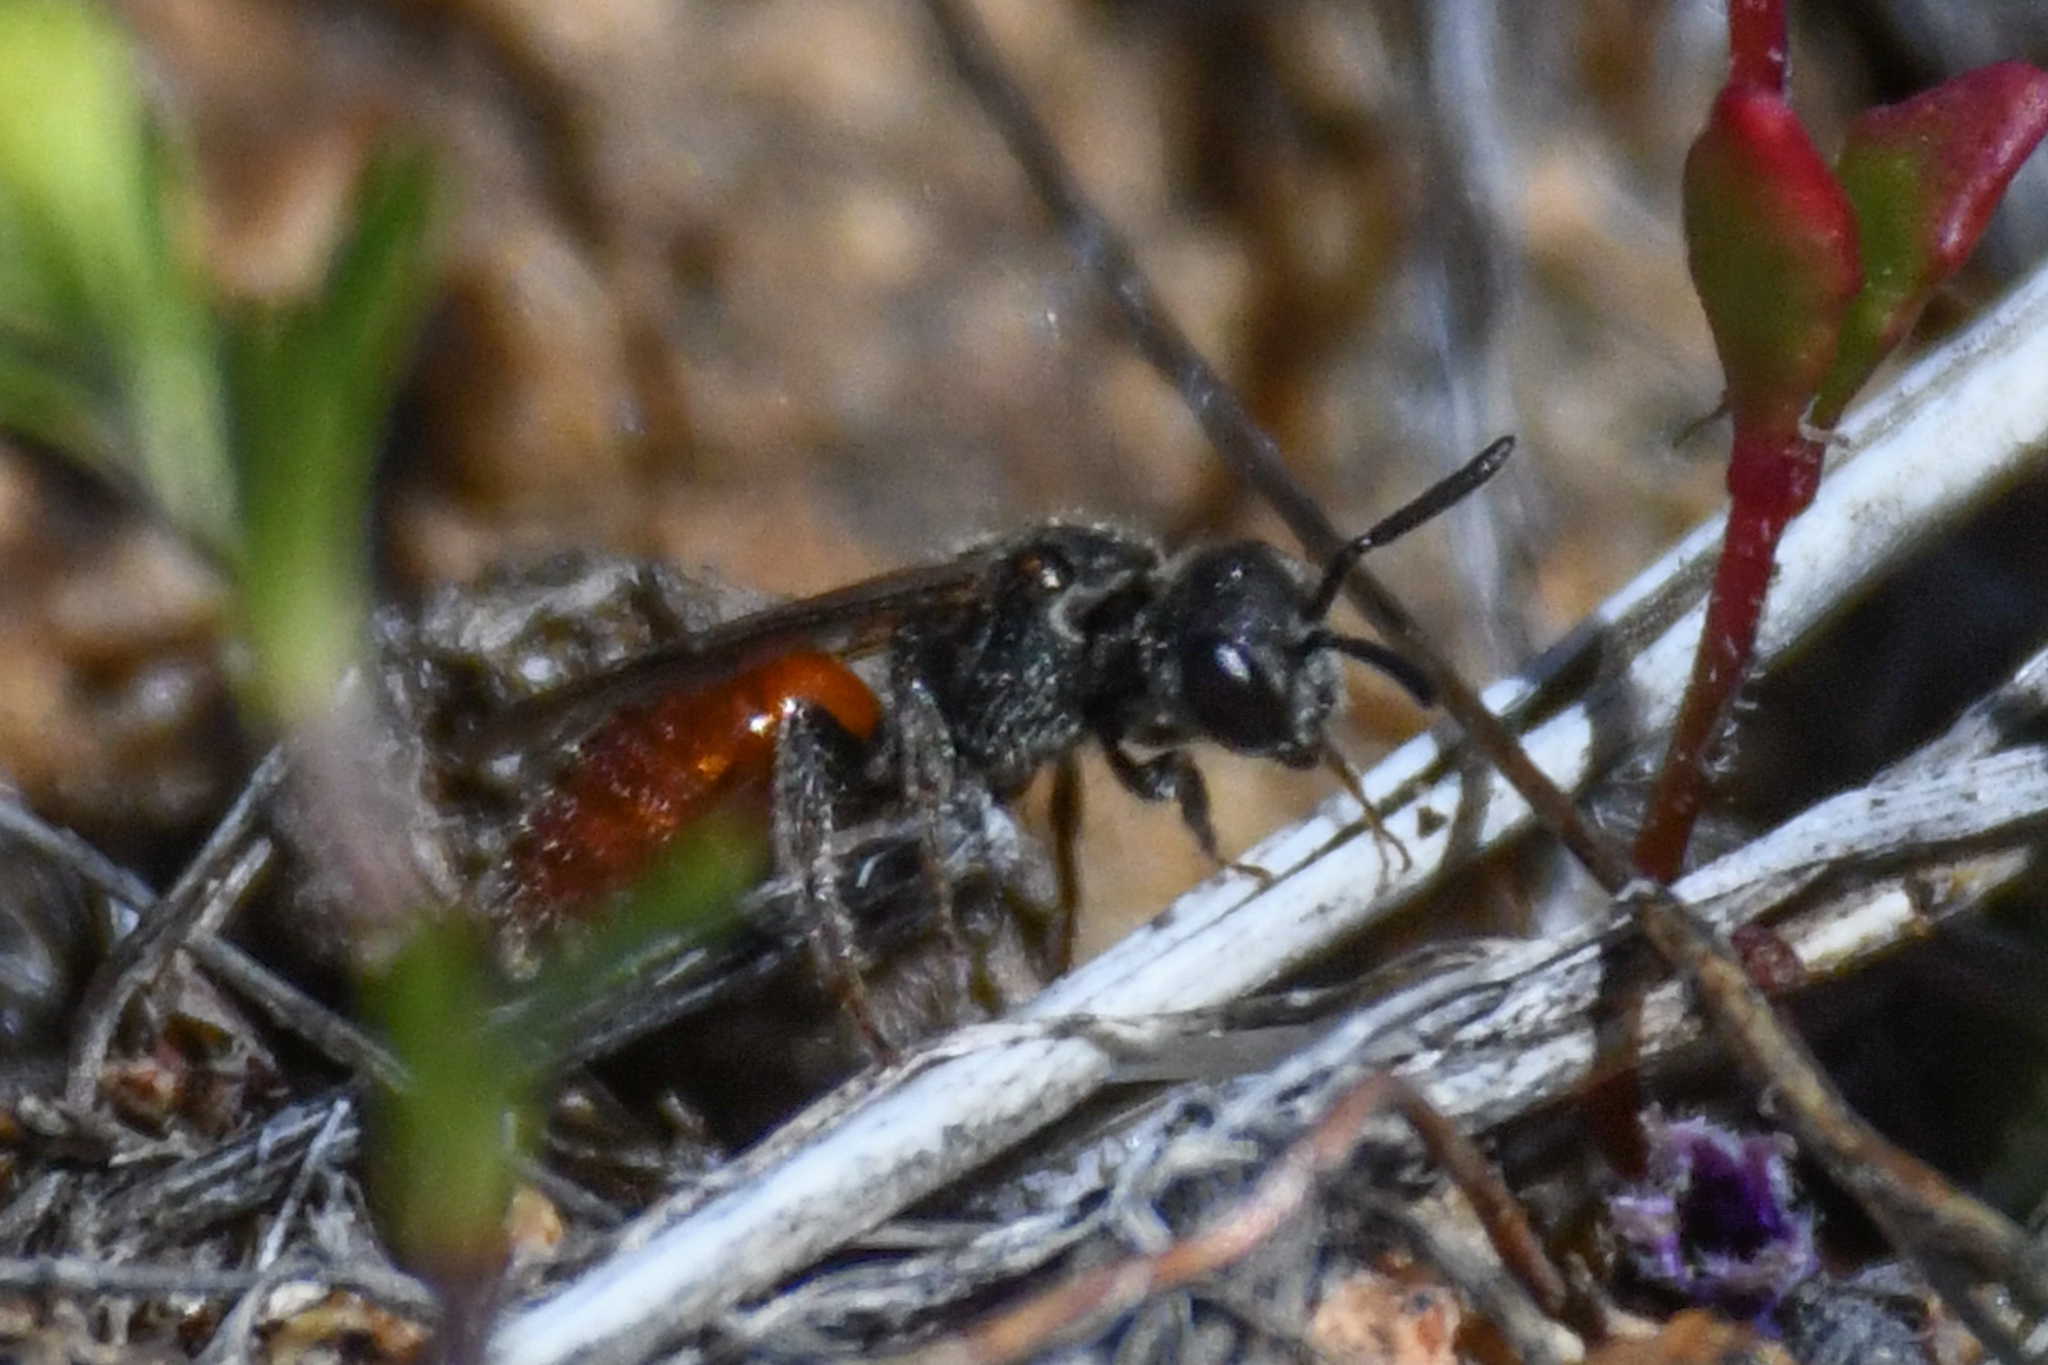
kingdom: Animalia
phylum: Arthropoda
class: Insecta
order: Hymenoptera
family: Halictidae
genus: Sphecodes
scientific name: Sphecodes
